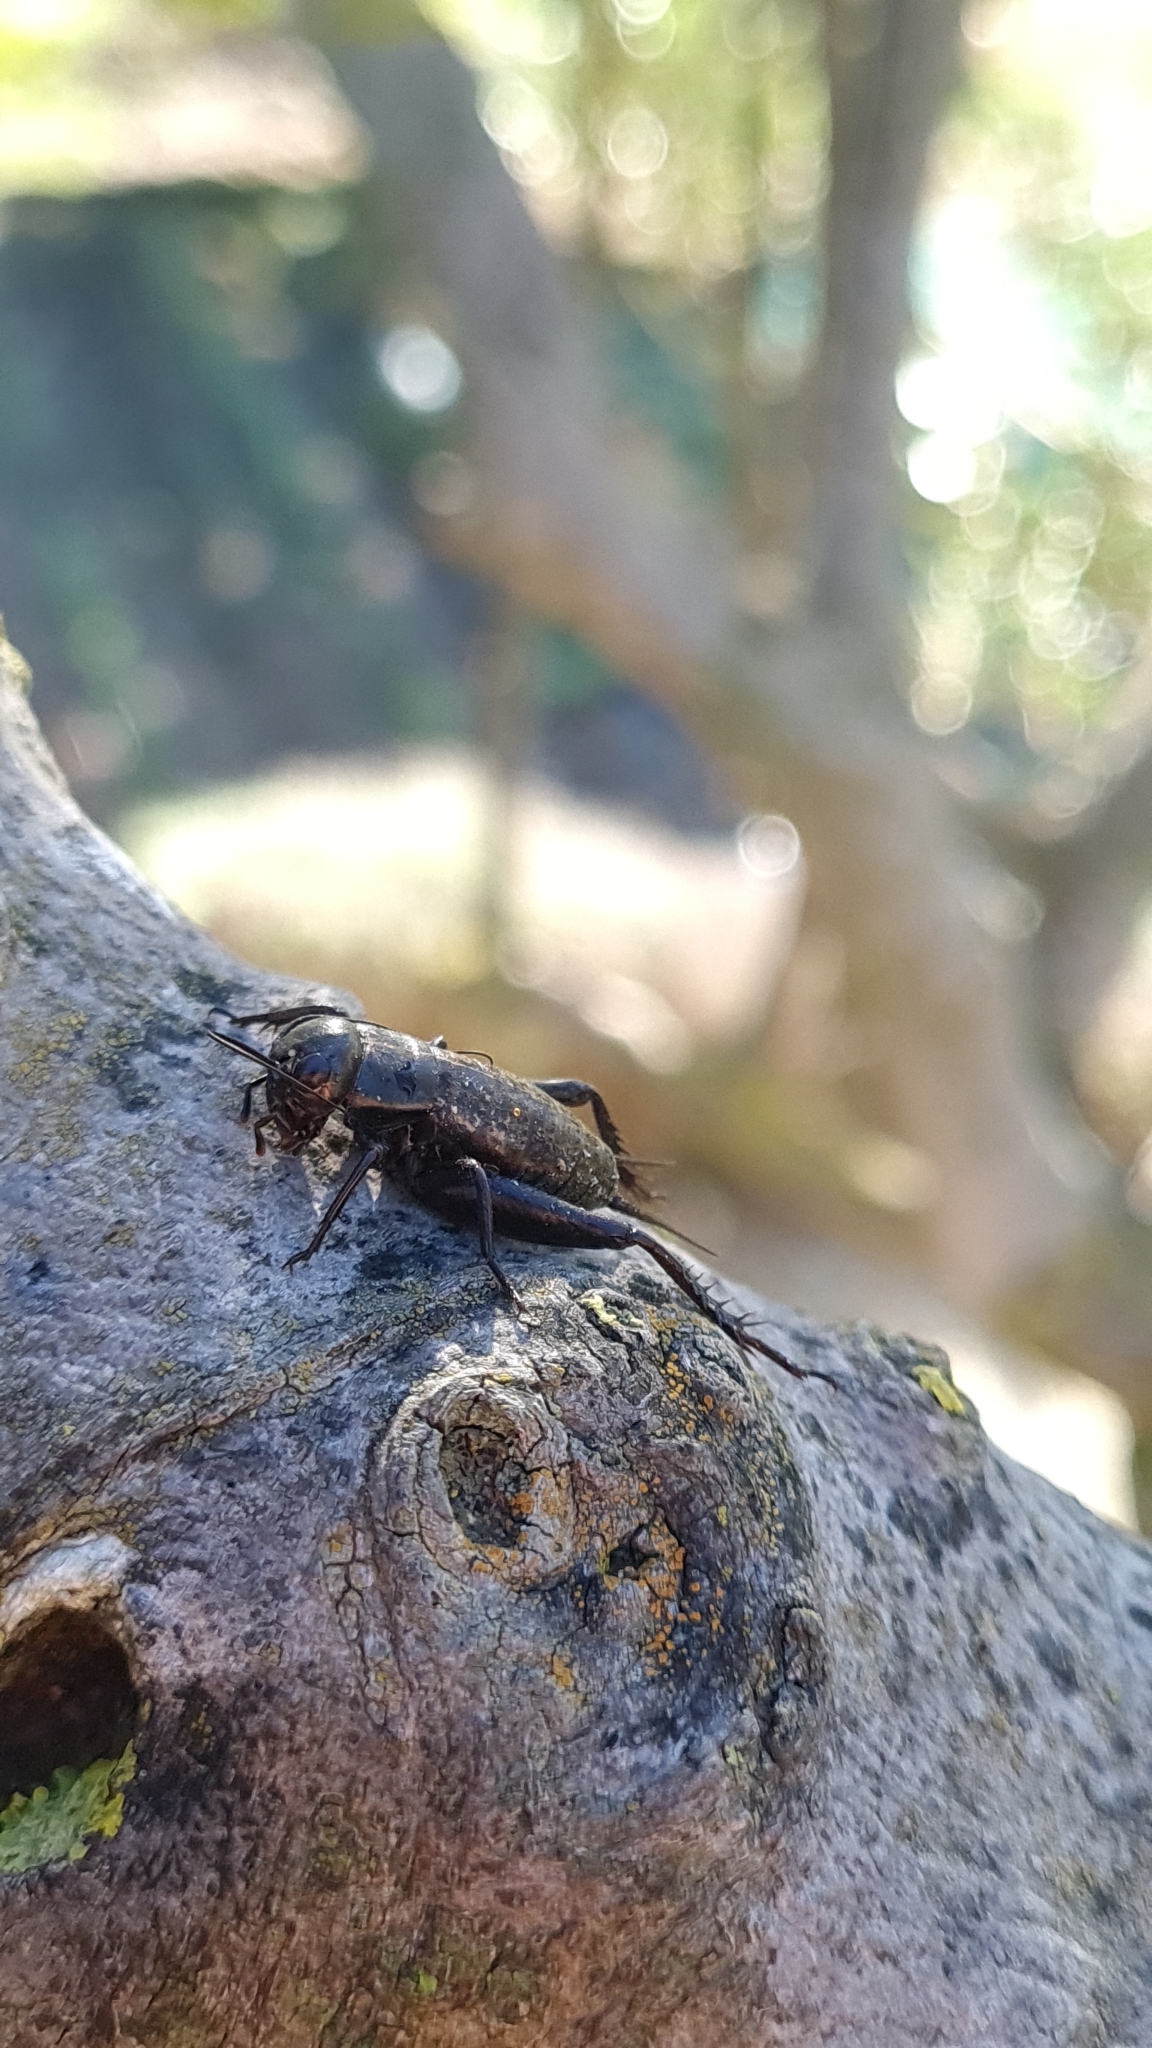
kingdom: Animalia
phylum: Arthropoda
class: Insecta
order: Orthoptera
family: Gryllidae
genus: Gryllus
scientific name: Gryllus bimaculatus
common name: Two-spotted cricket
